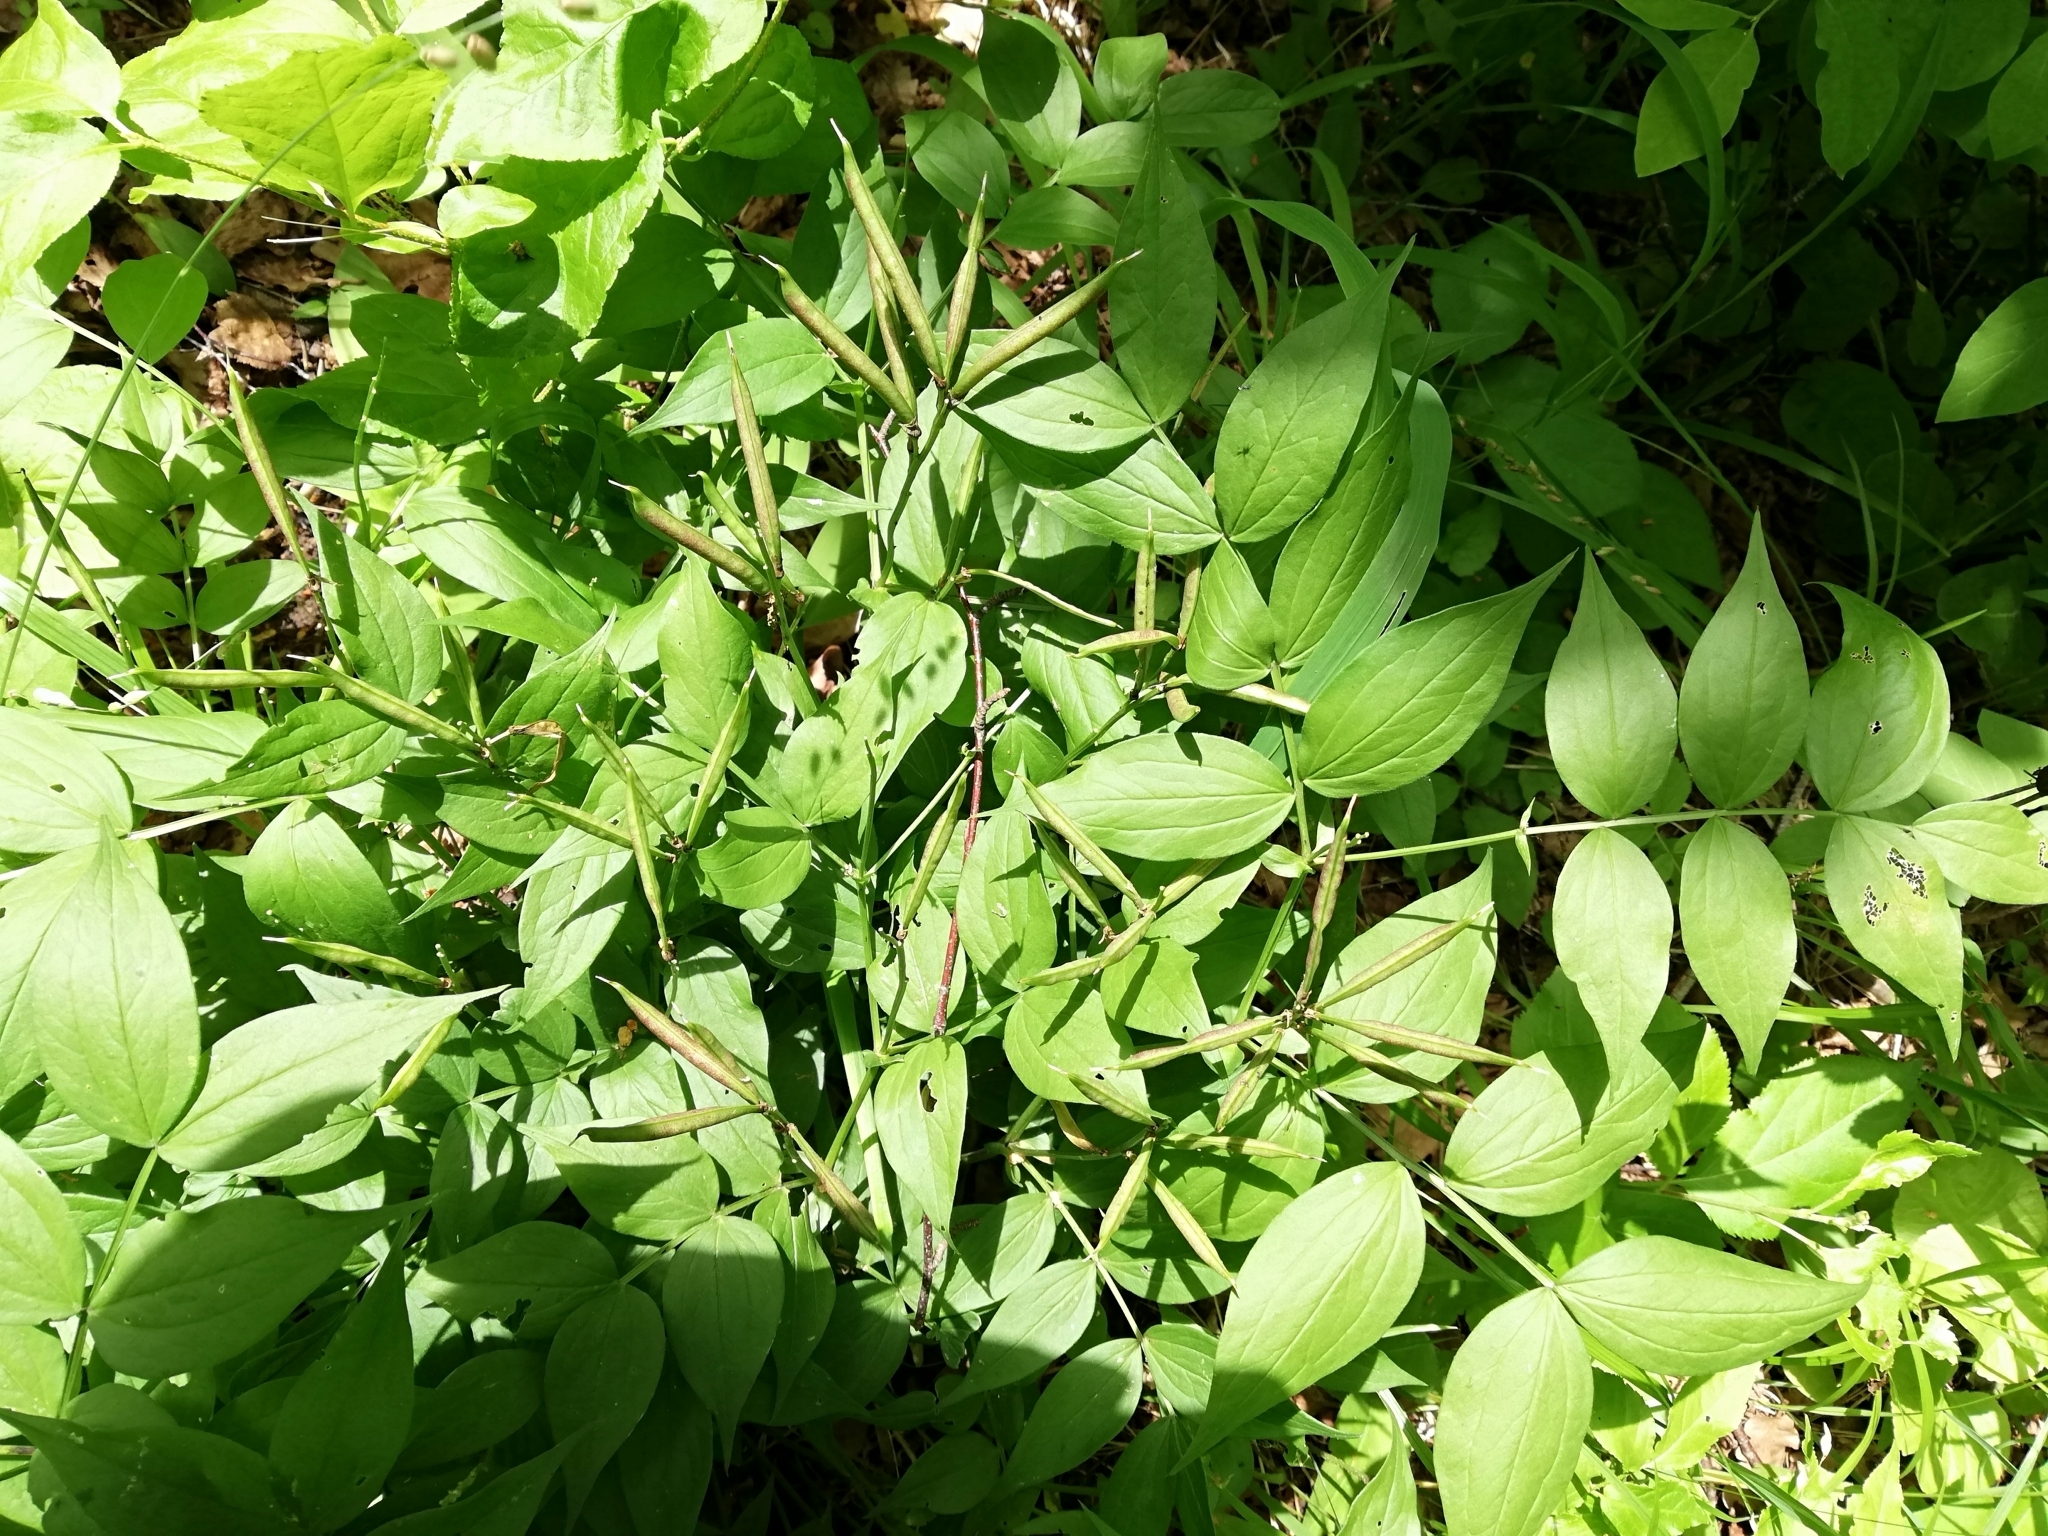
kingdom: Plantae
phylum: Tracheophyta
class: Magnoliopsida
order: Fabales
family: Fabaceae
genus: Lathyrus
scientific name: Lathyrus vernus
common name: Spring pea
